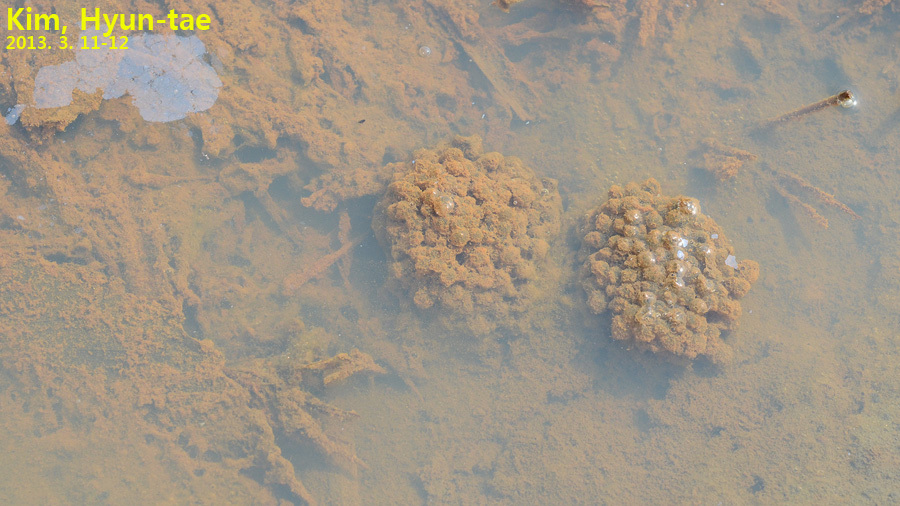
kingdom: Animalia
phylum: Chordata
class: Amphibia
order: Anura
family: Ranidae
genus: Rana
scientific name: Rana coreana
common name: Korean brown frog
